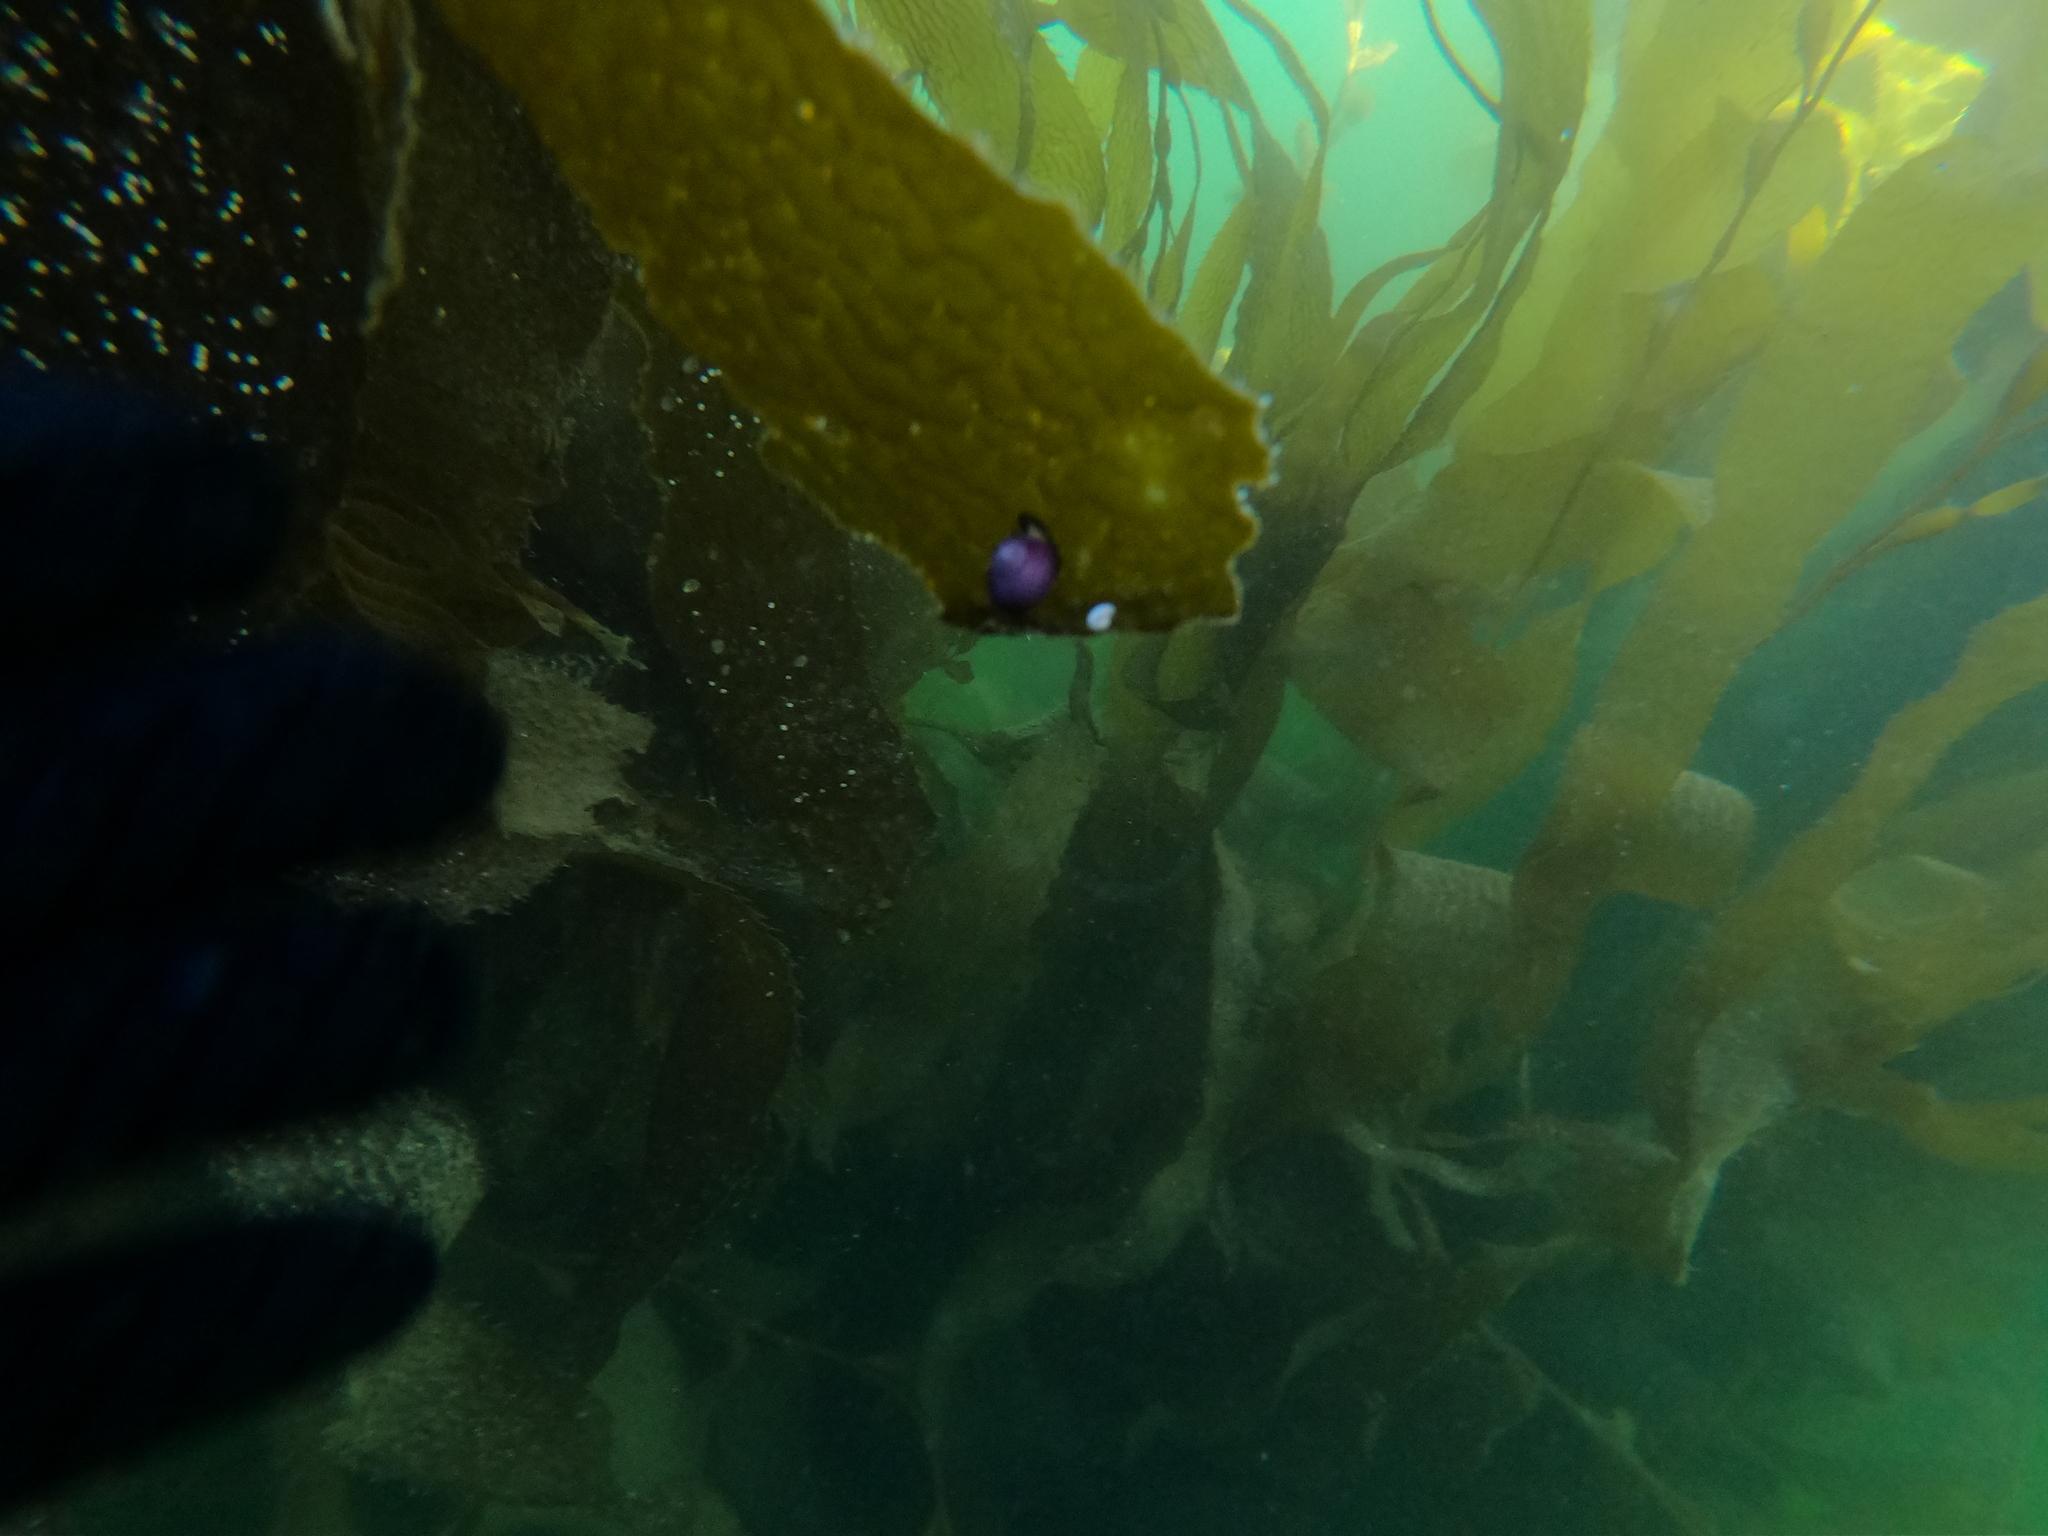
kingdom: Animalia
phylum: Mollusca
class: Gastropoda
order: Trochida
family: Calliostomatidae
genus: Margarella
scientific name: Margarella violacea
